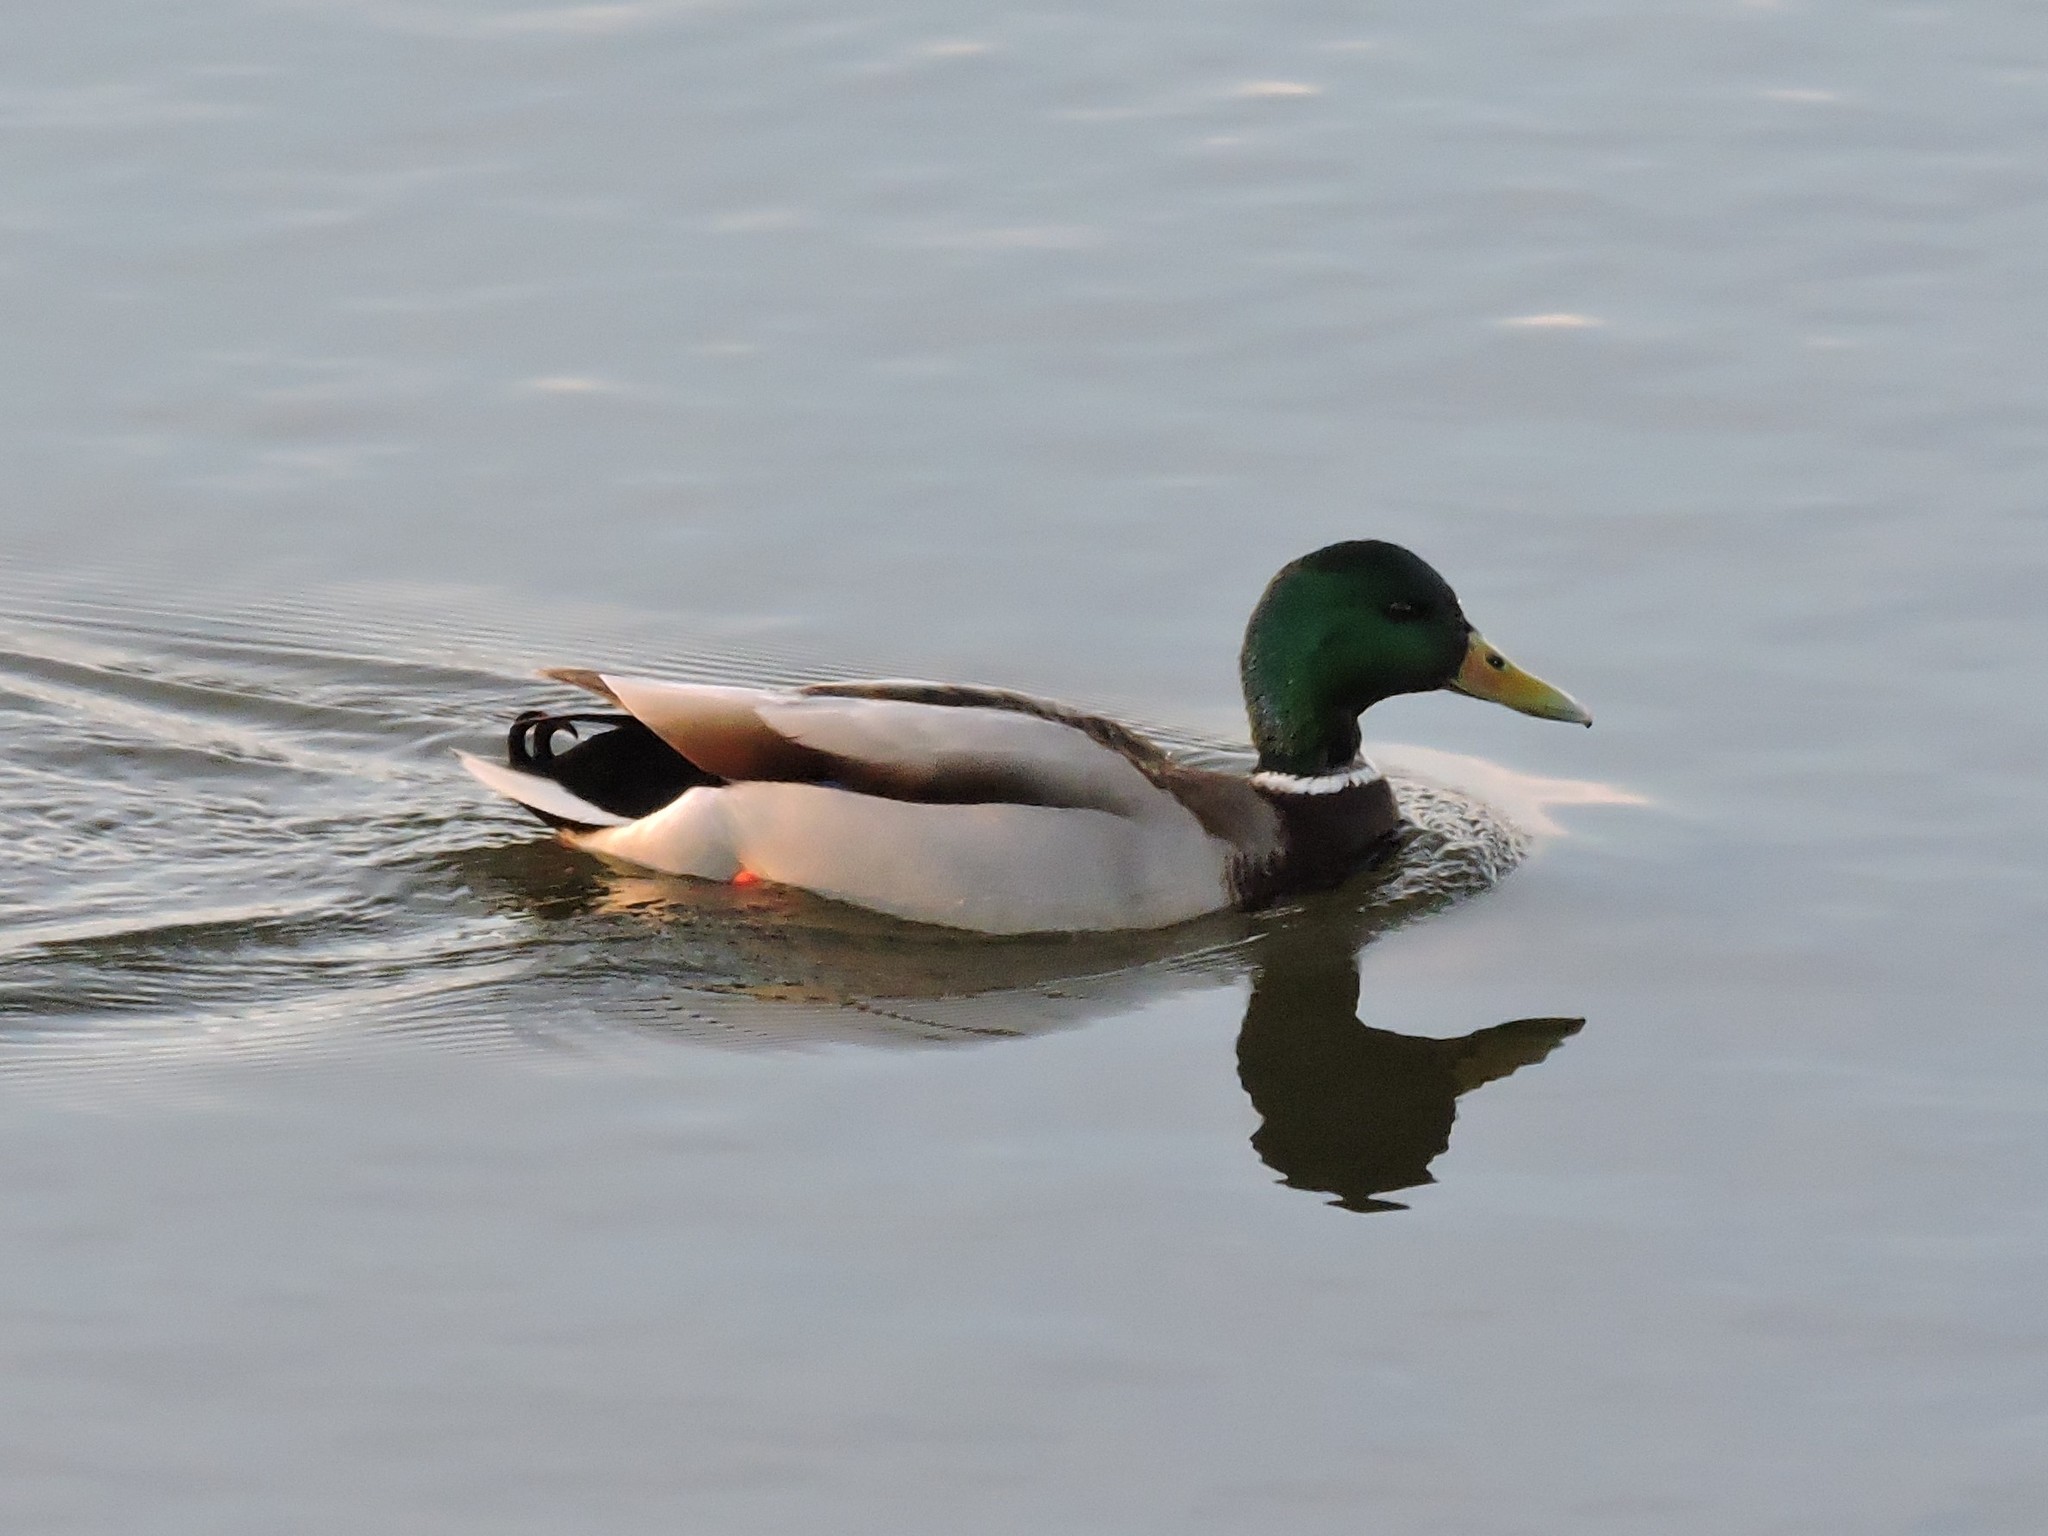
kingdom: Animalia
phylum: Chordata
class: Aves
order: Anseriformes
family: Anatidae
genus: Anas
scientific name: Anas platyrhynchos
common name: Mallard
